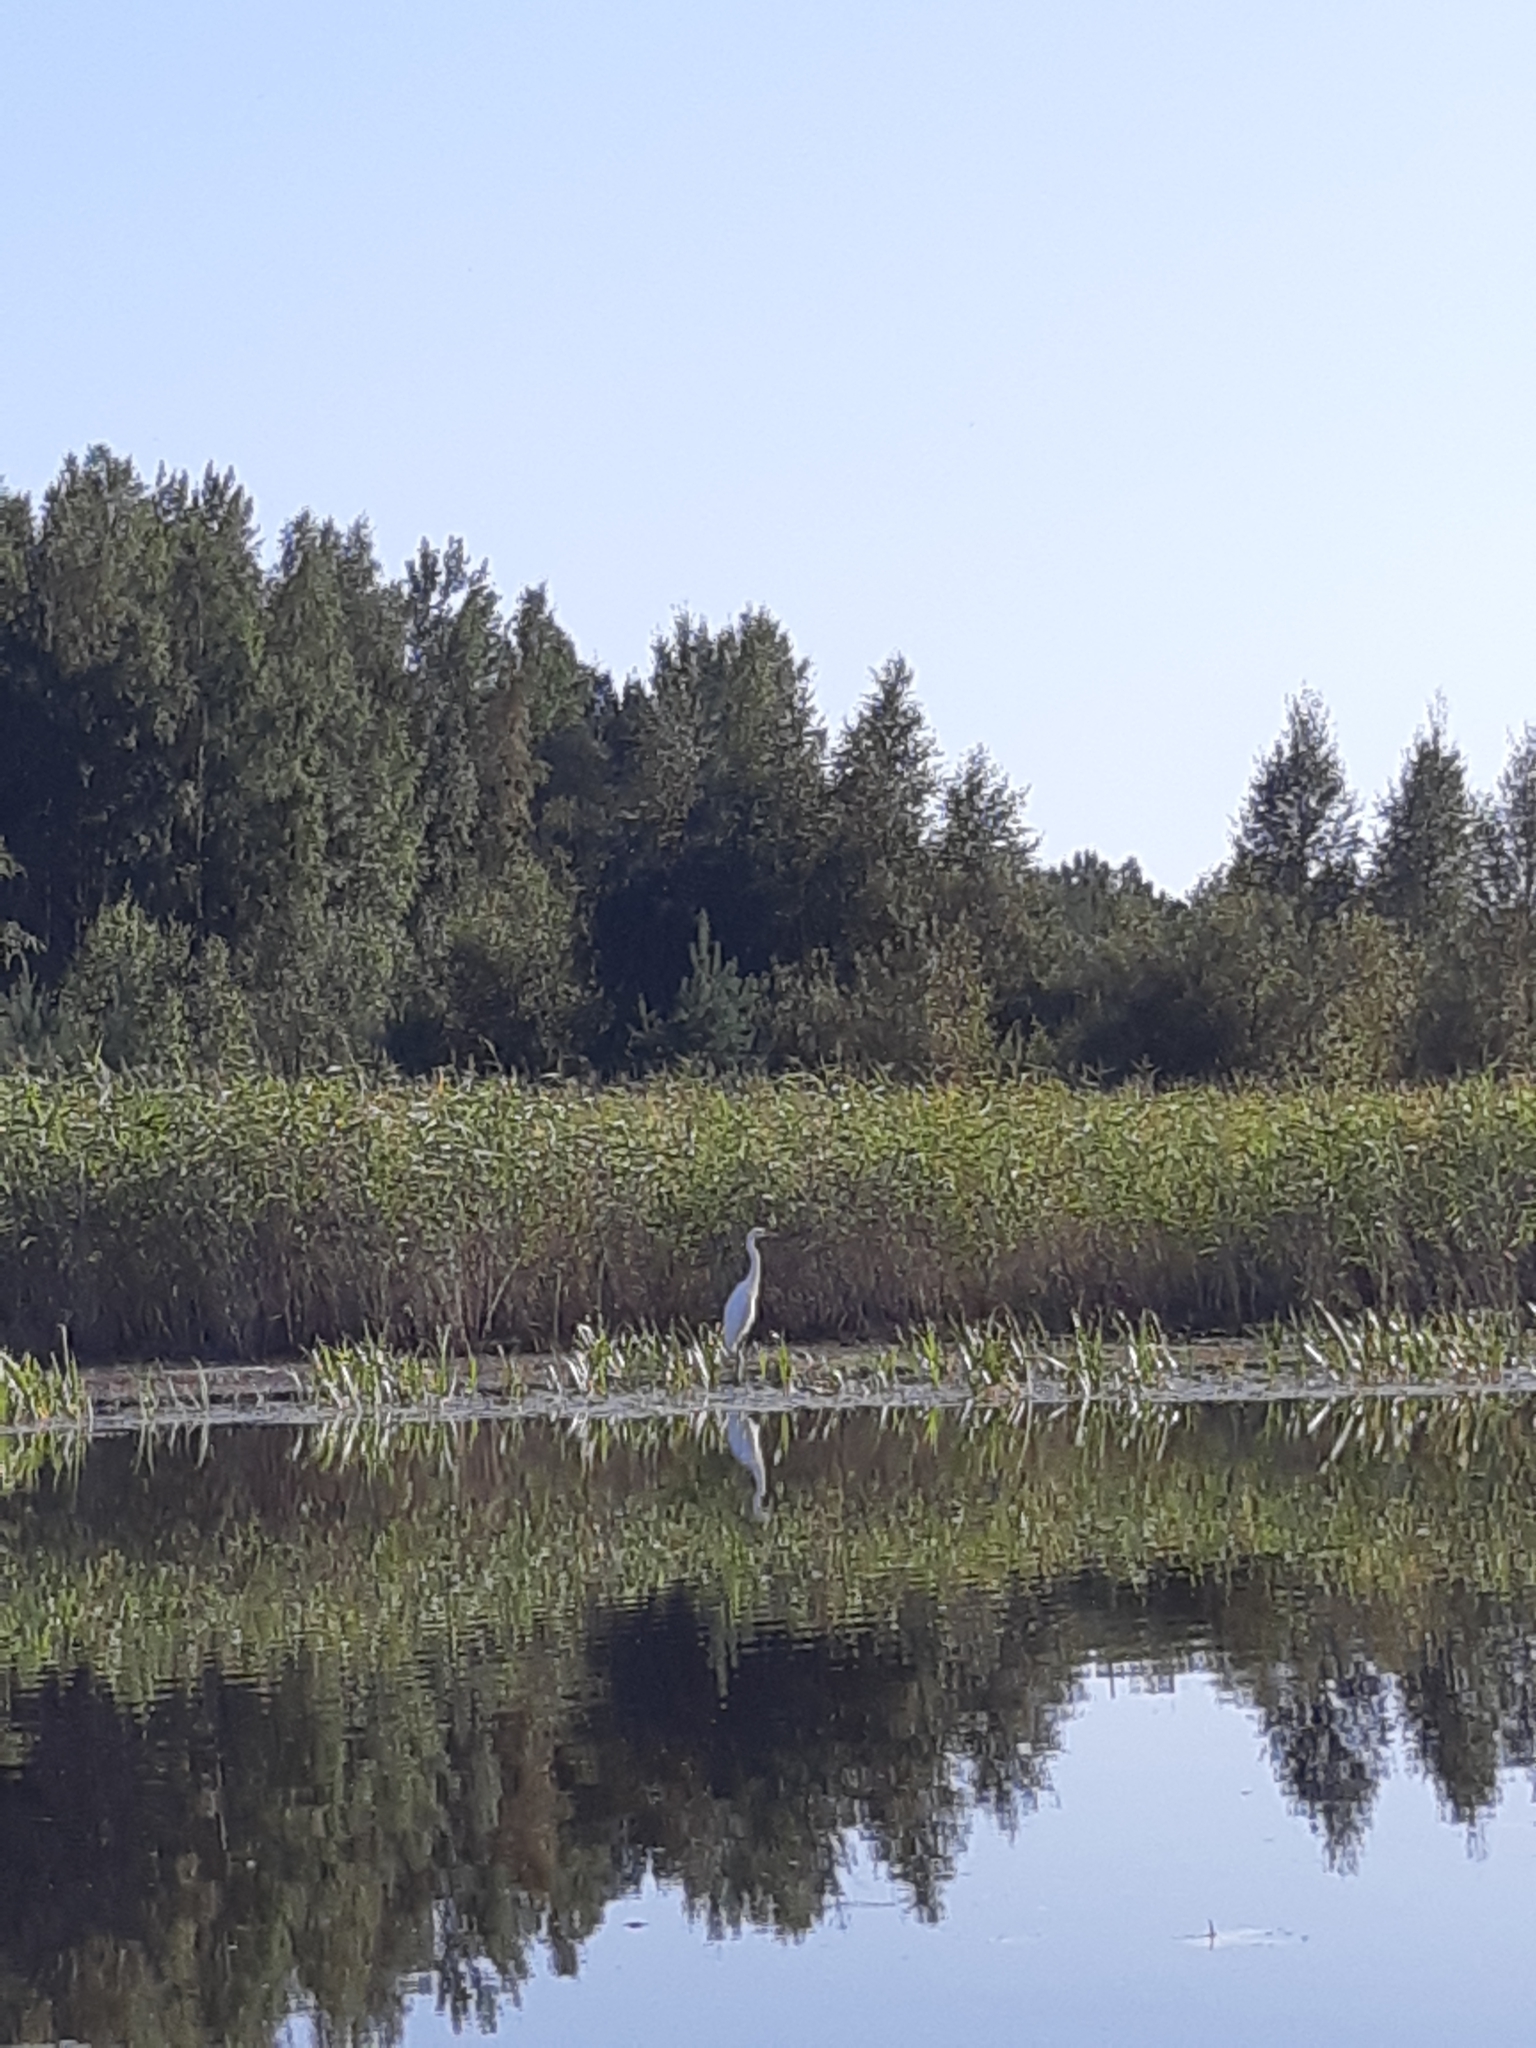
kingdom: Animalia
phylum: Chordata
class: Aves
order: Pelecaniformes
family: Ardeidae
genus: Ardea
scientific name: Ardea alba
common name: Great egret
